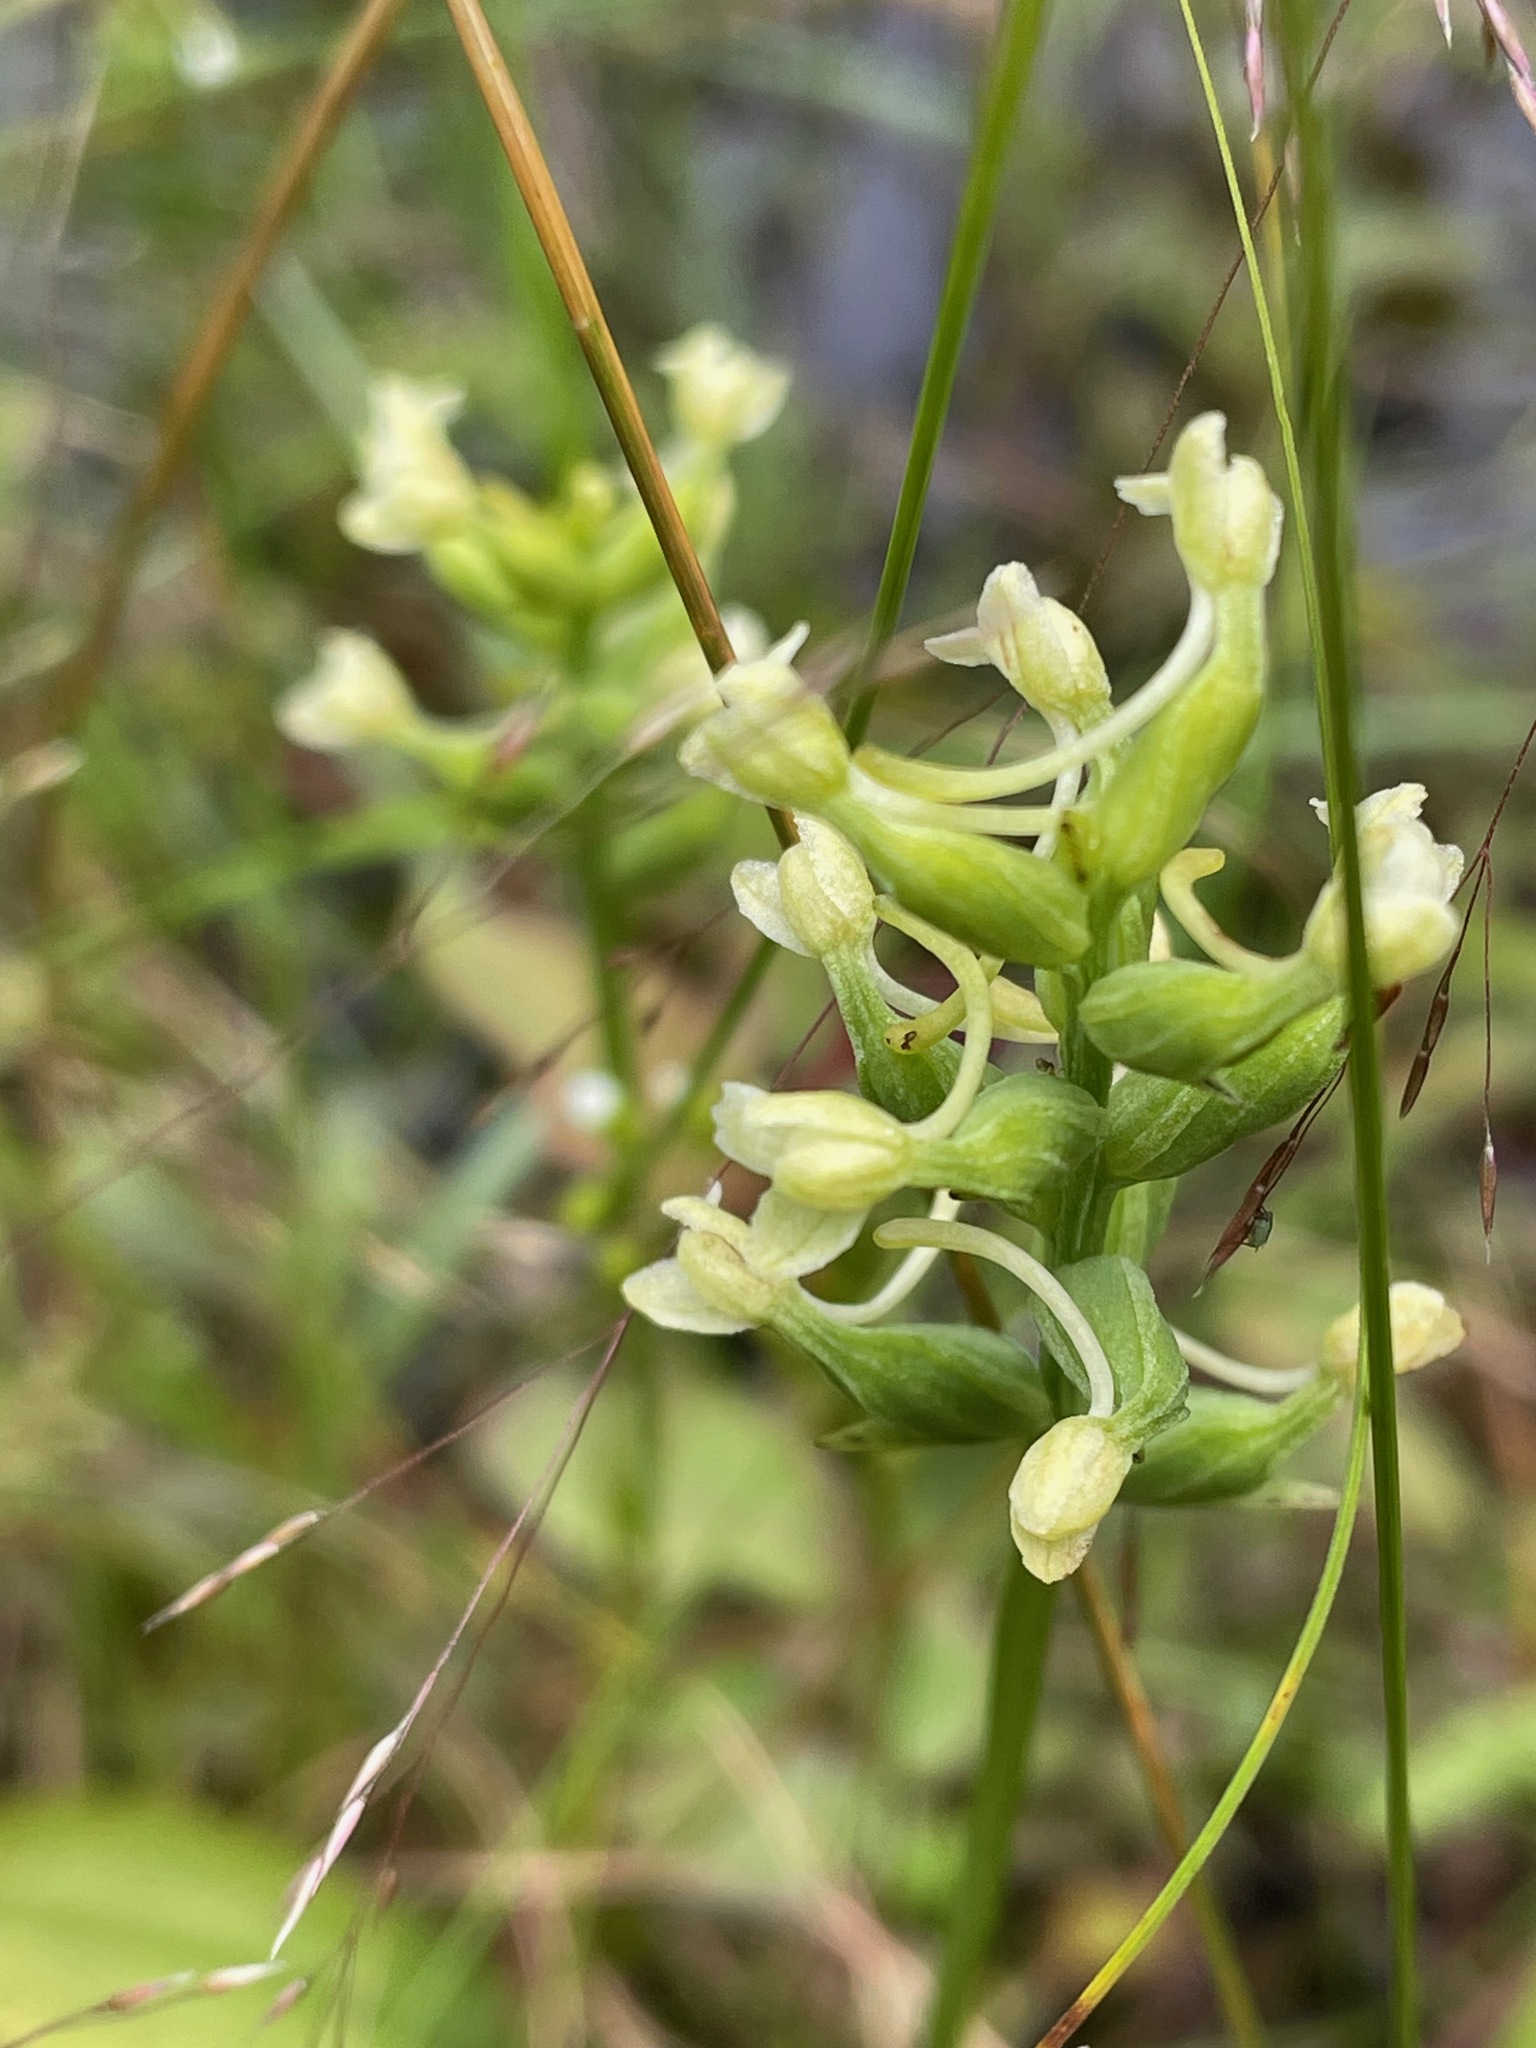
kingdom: Plantae
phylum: Tracheophyta
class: Liliopsida
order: Asparagales
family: Orchidaceae
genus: Platanthera
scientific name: Platanthera clavellata
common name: Club-spur orchid
